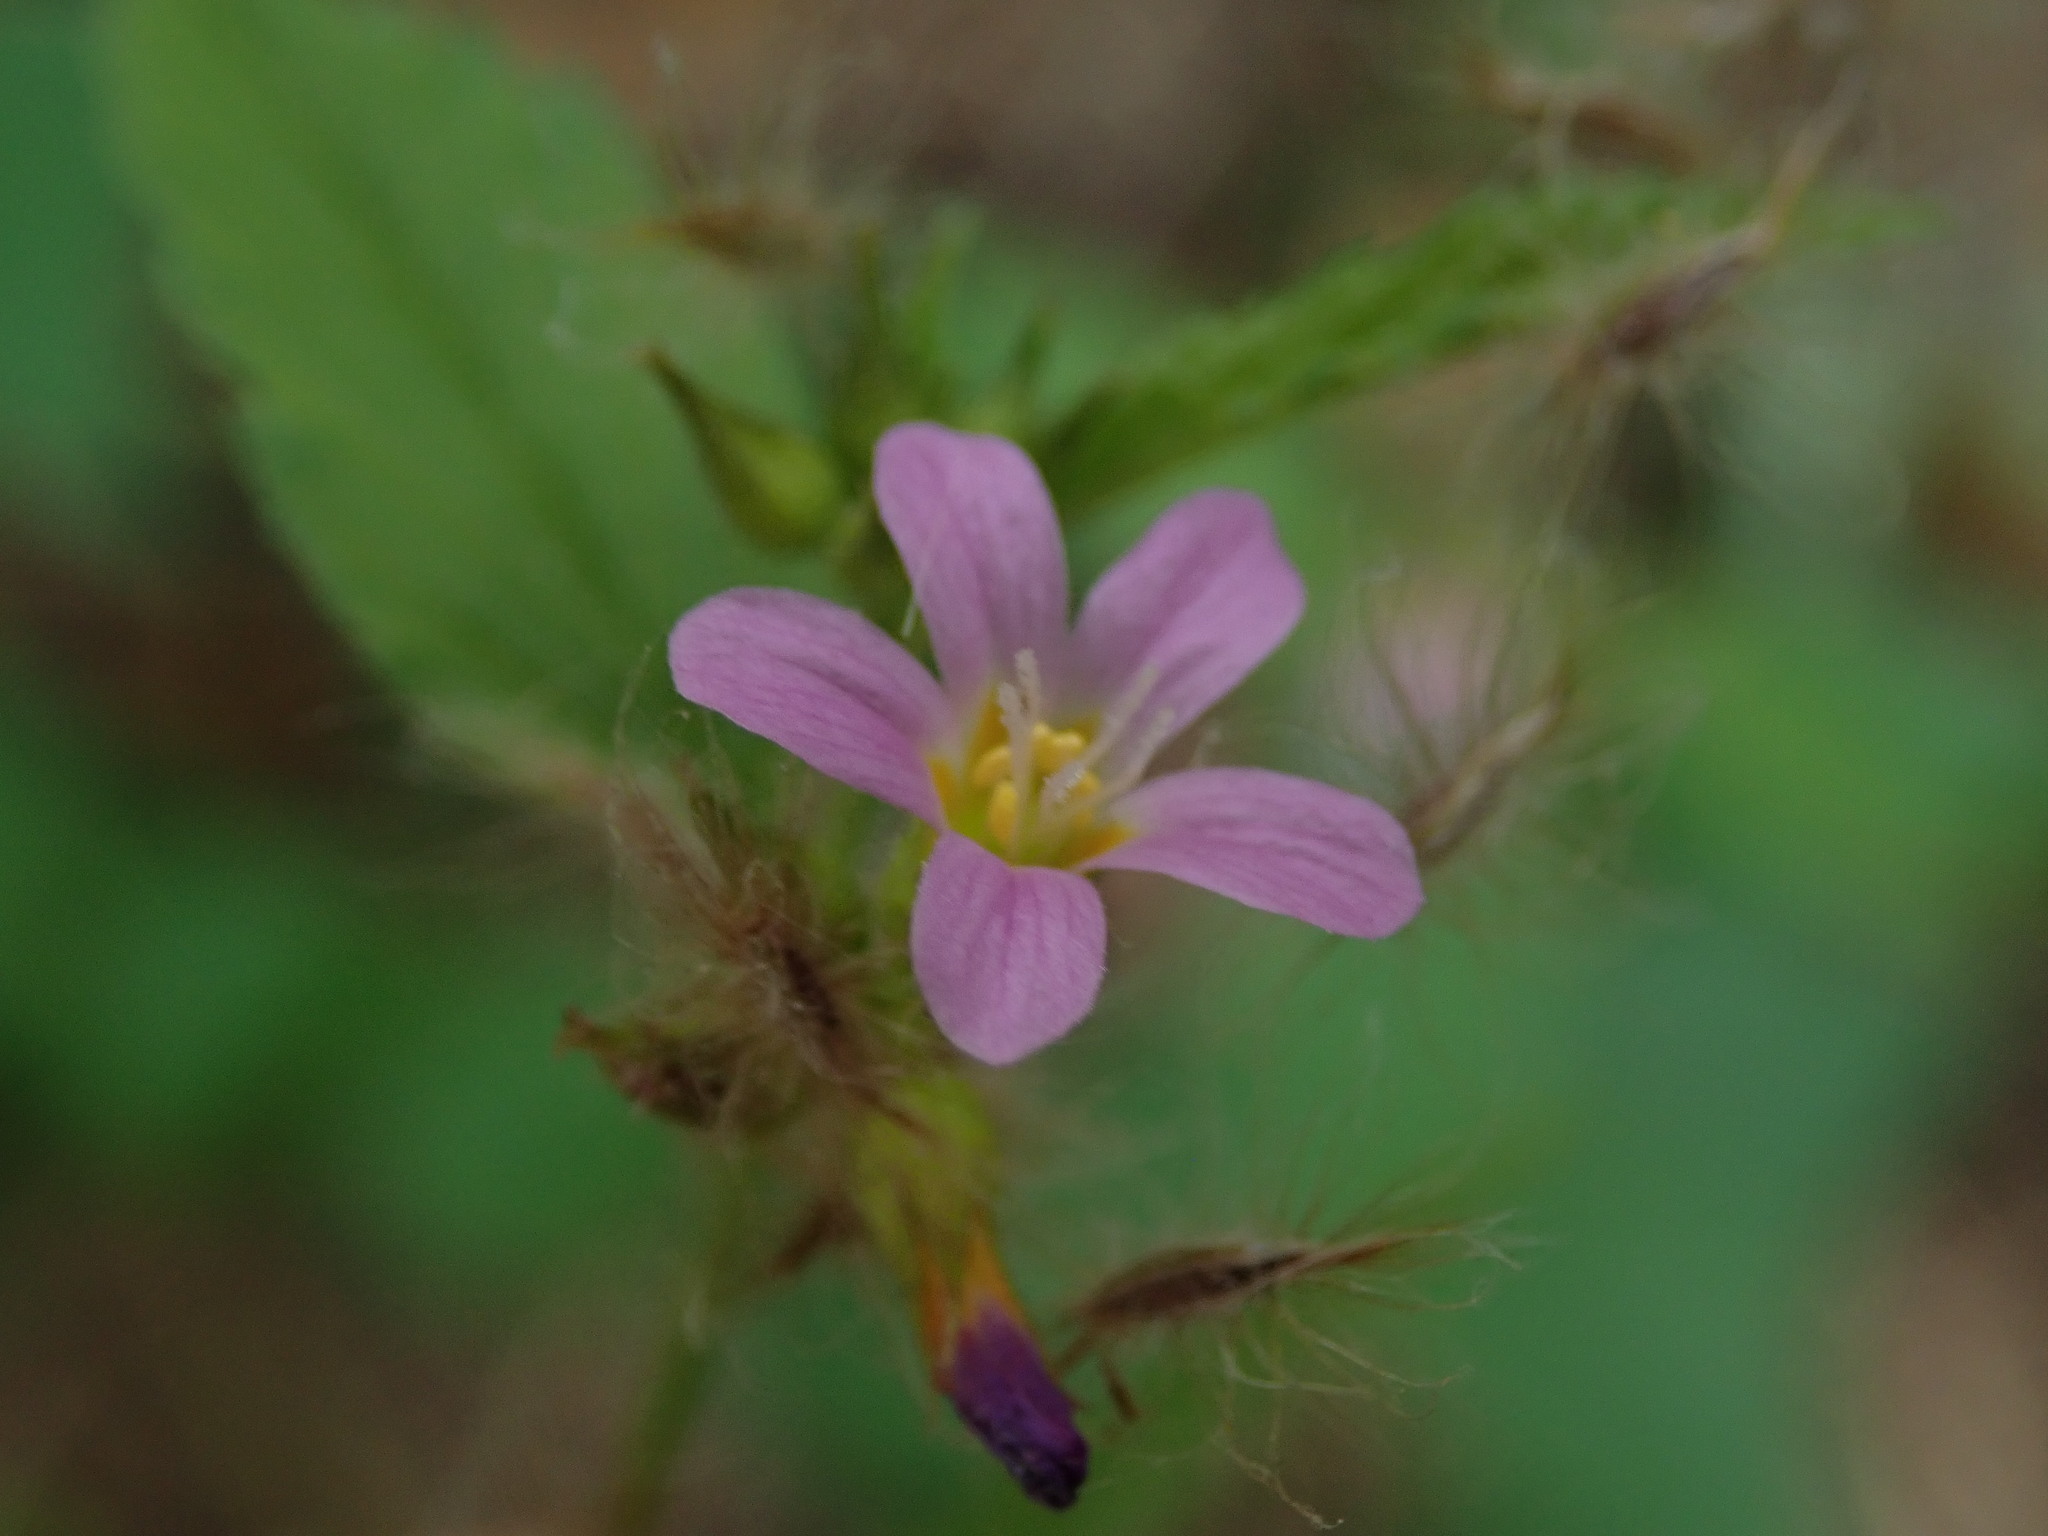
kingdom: Plantae
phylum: Tracheophyta
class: Magnoliopsida
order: Malvales
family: Malvaceae
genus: Melochia
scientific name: Melochia pyramidata
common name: Pyramidflower
